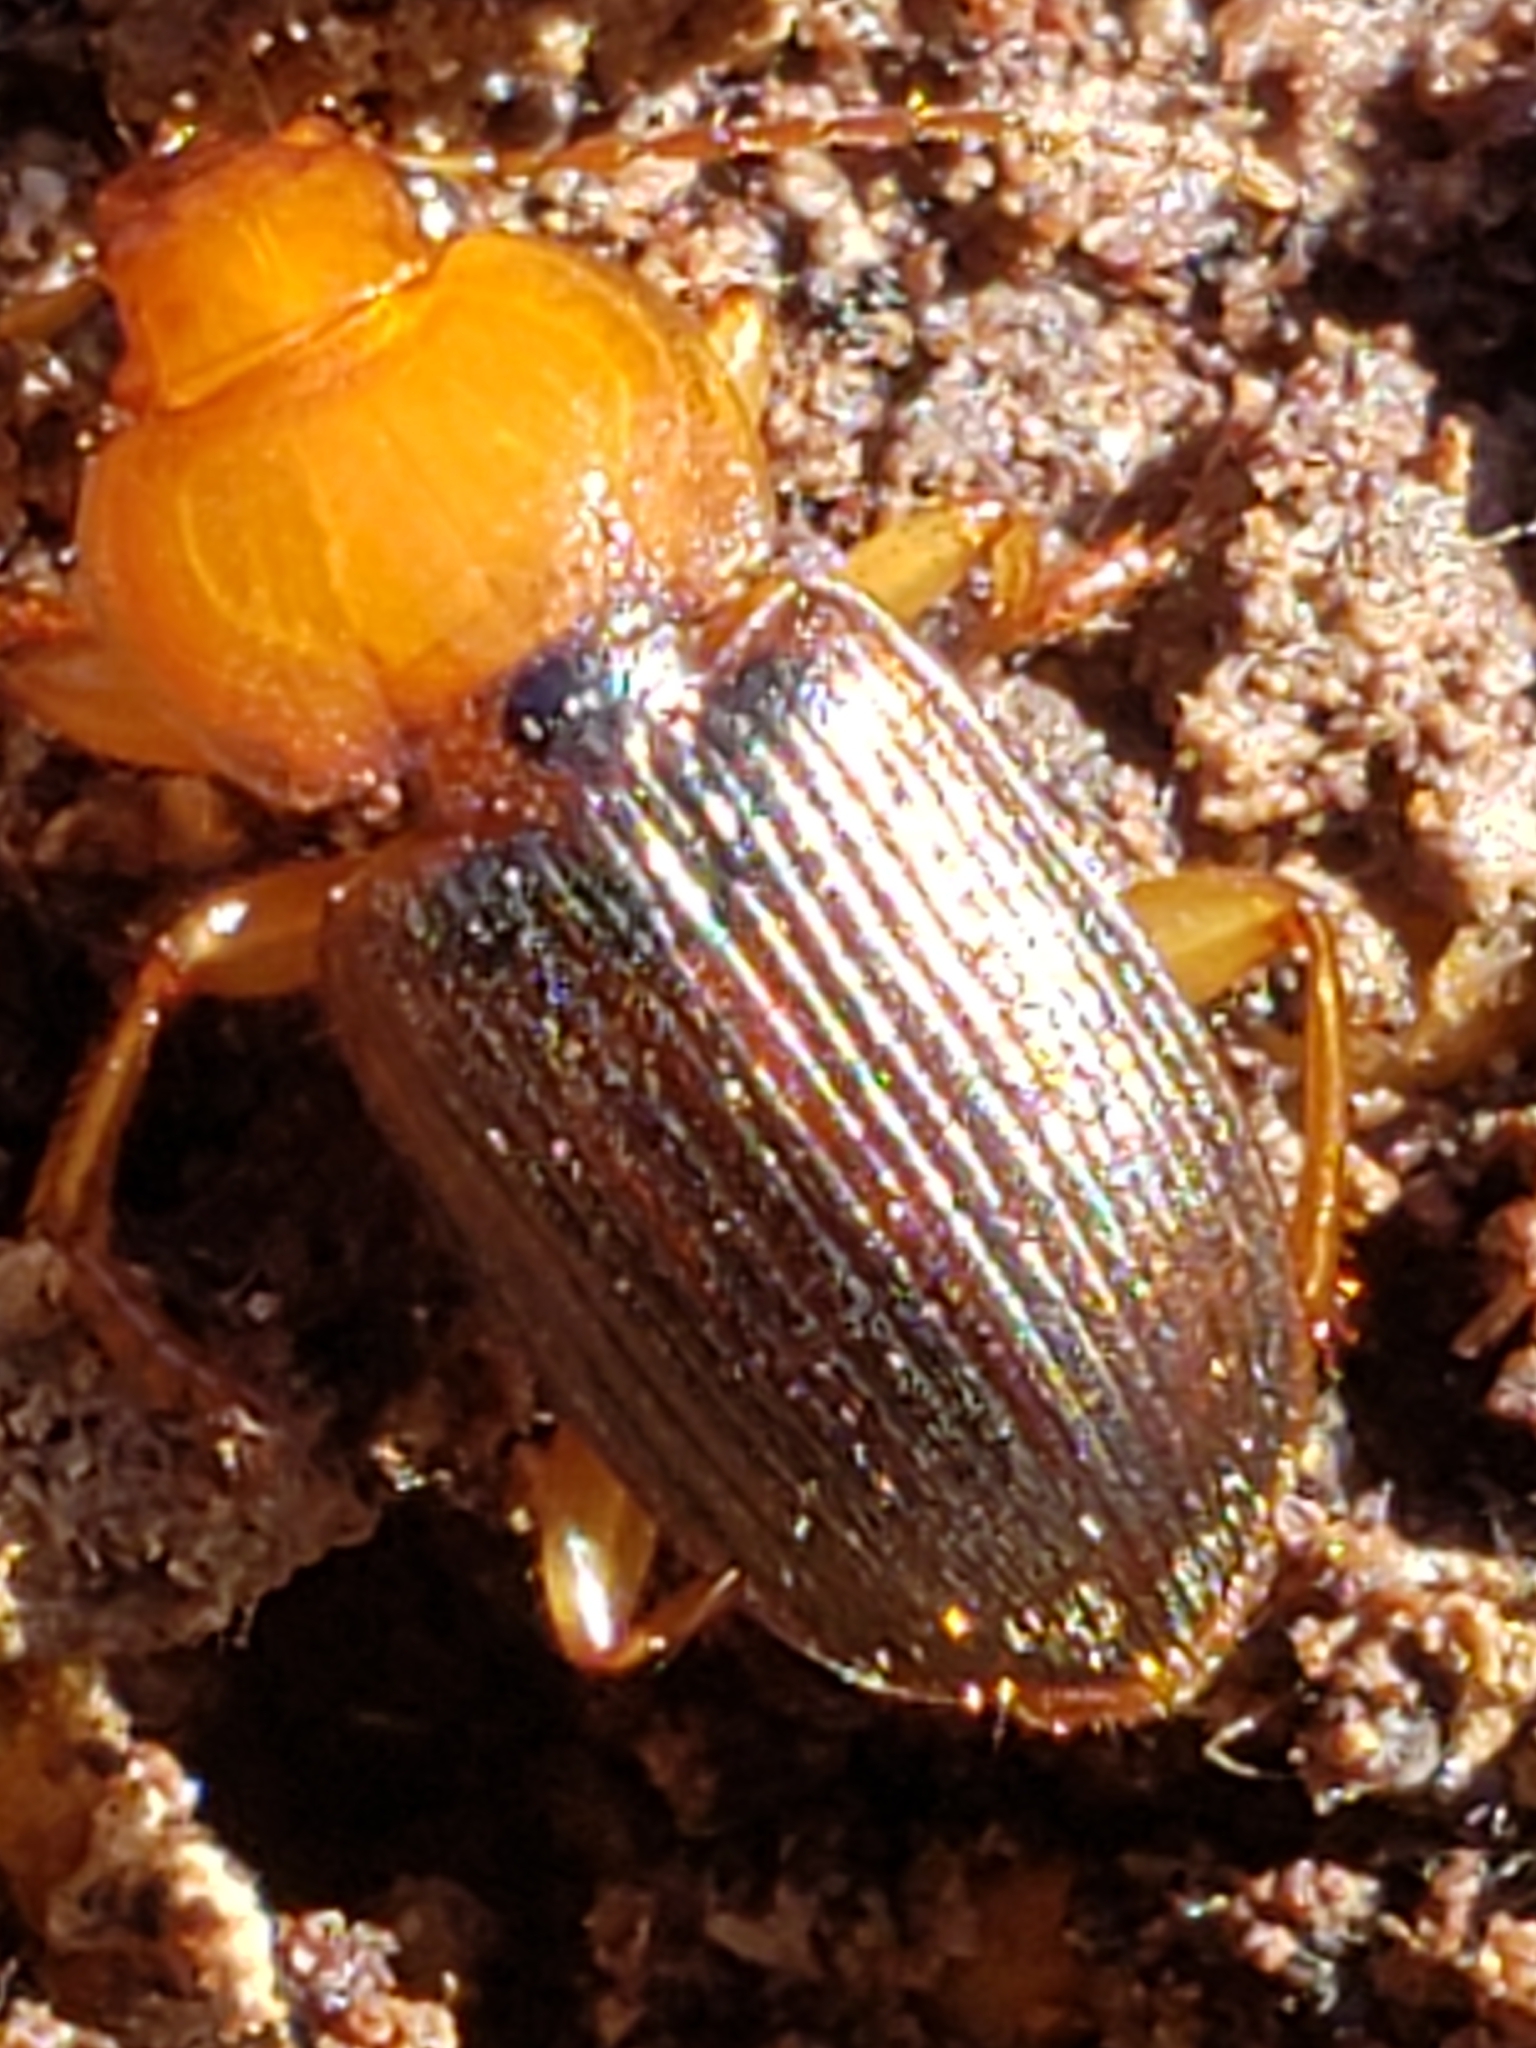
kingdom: Animalia
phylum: Arthropoda
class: Insecta
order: Coleoptera
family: Carabidae
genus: Amphasia
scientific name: Amphasia interstitialis
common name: Red-headed ground beetle
